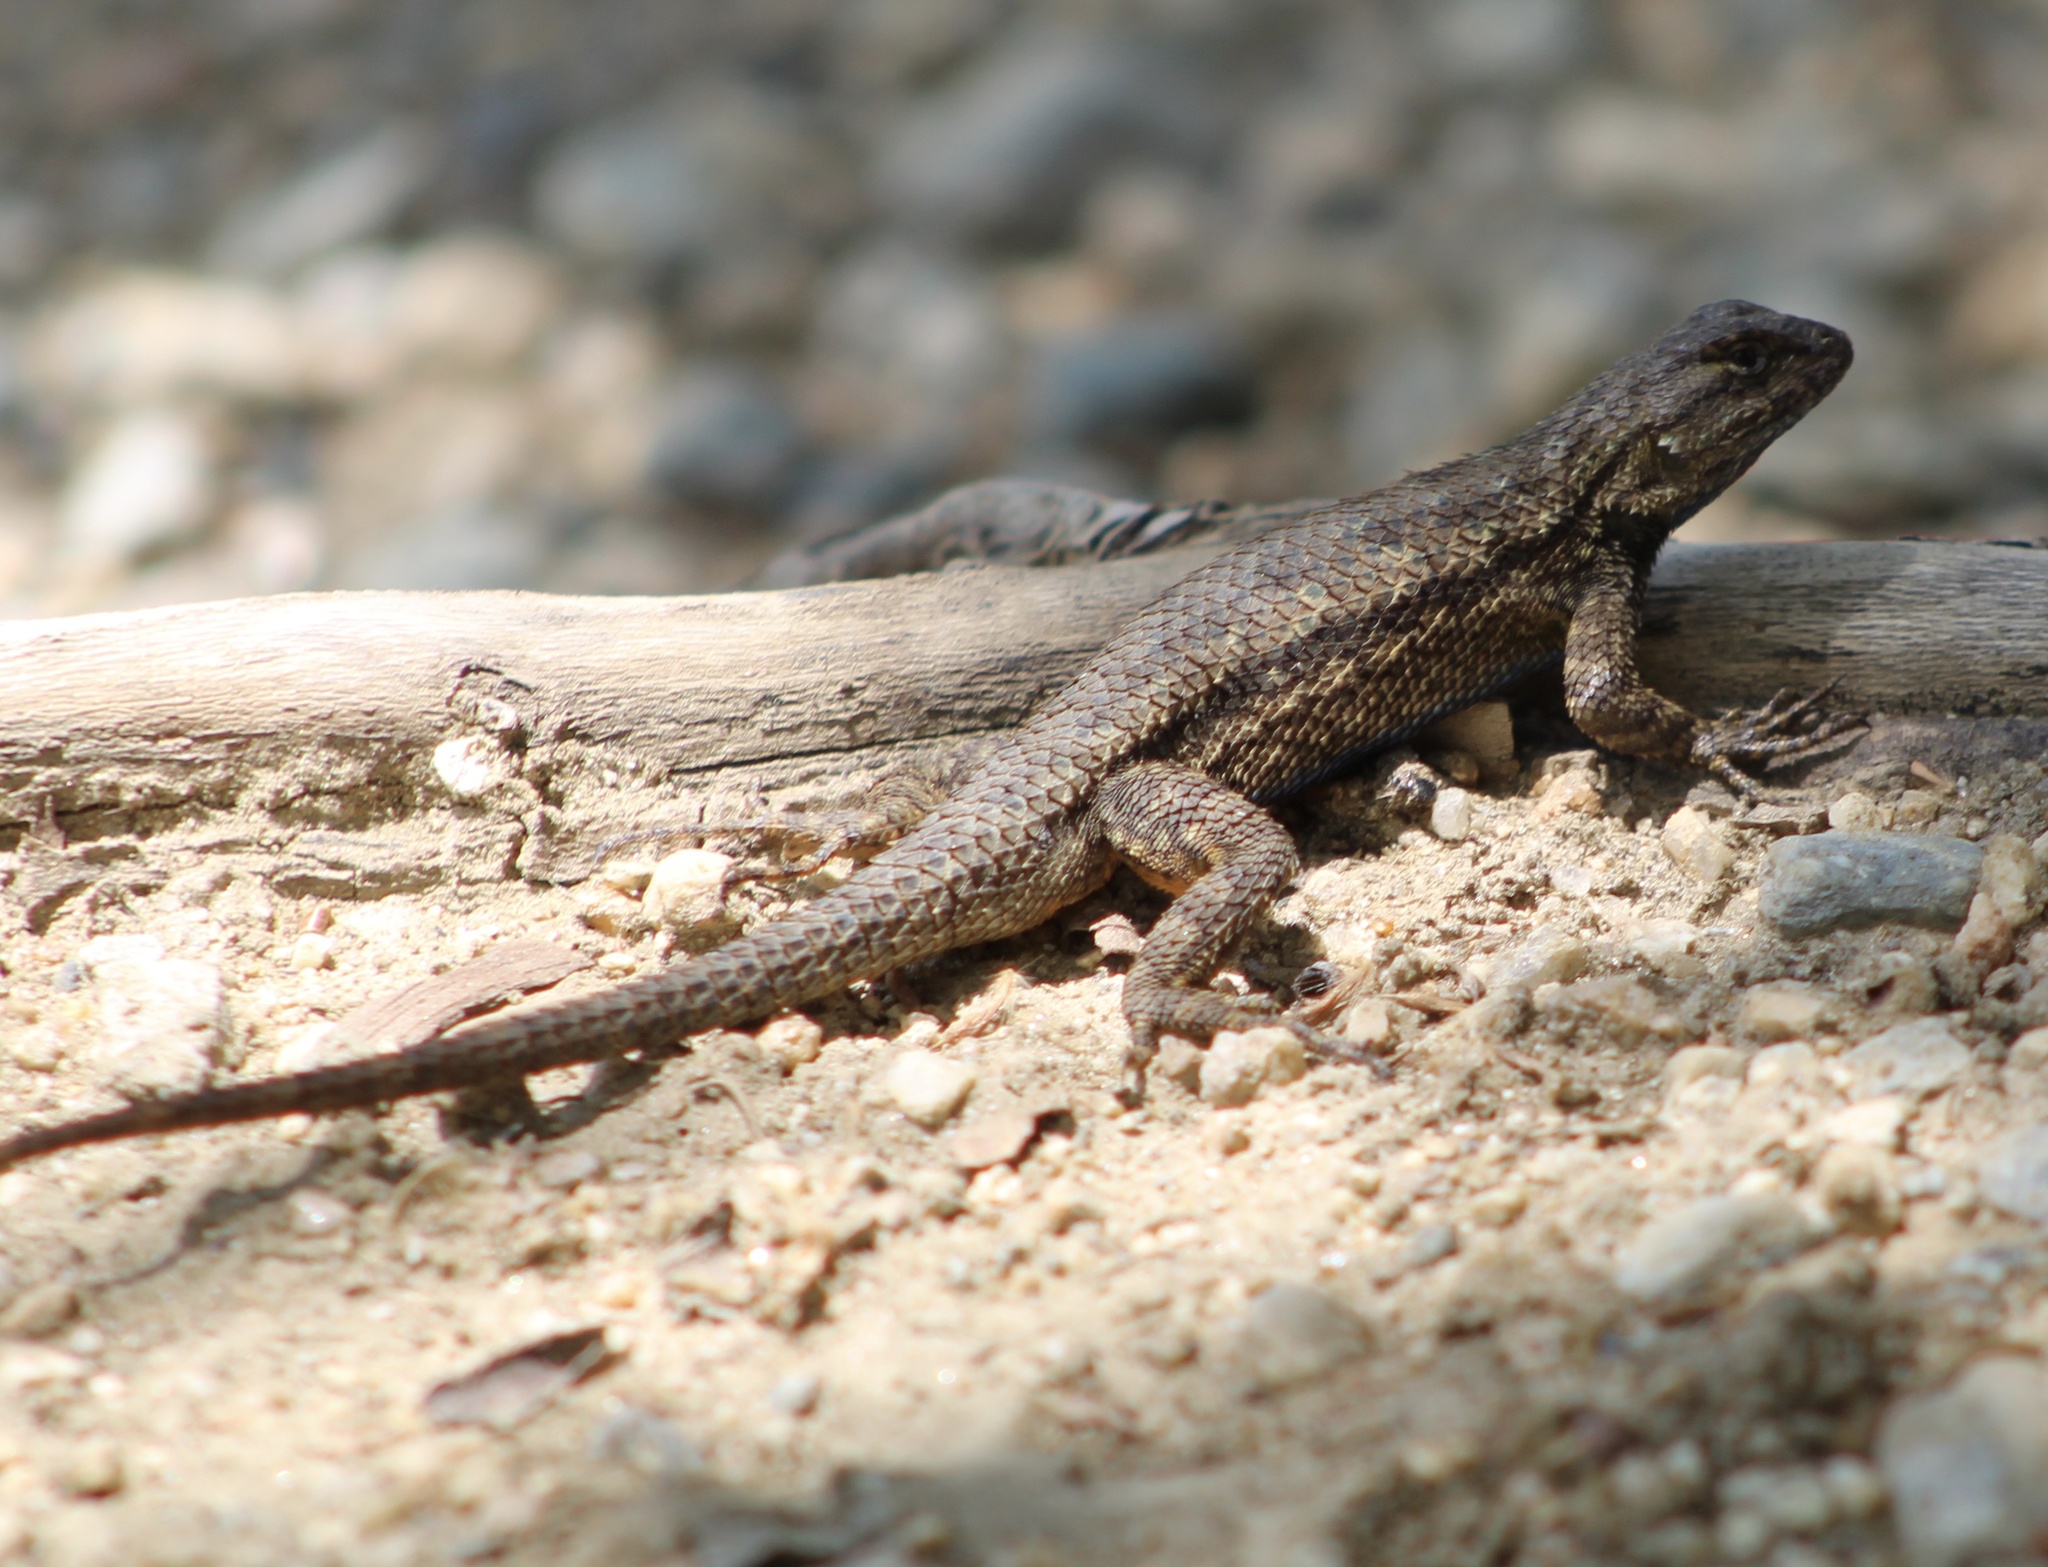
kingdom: Animalia
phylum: Chordata
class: Squamata
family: Phrynosomatidae
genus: Sceloporus
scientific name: Sceloporus occidentalis
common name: Western fence lizard
